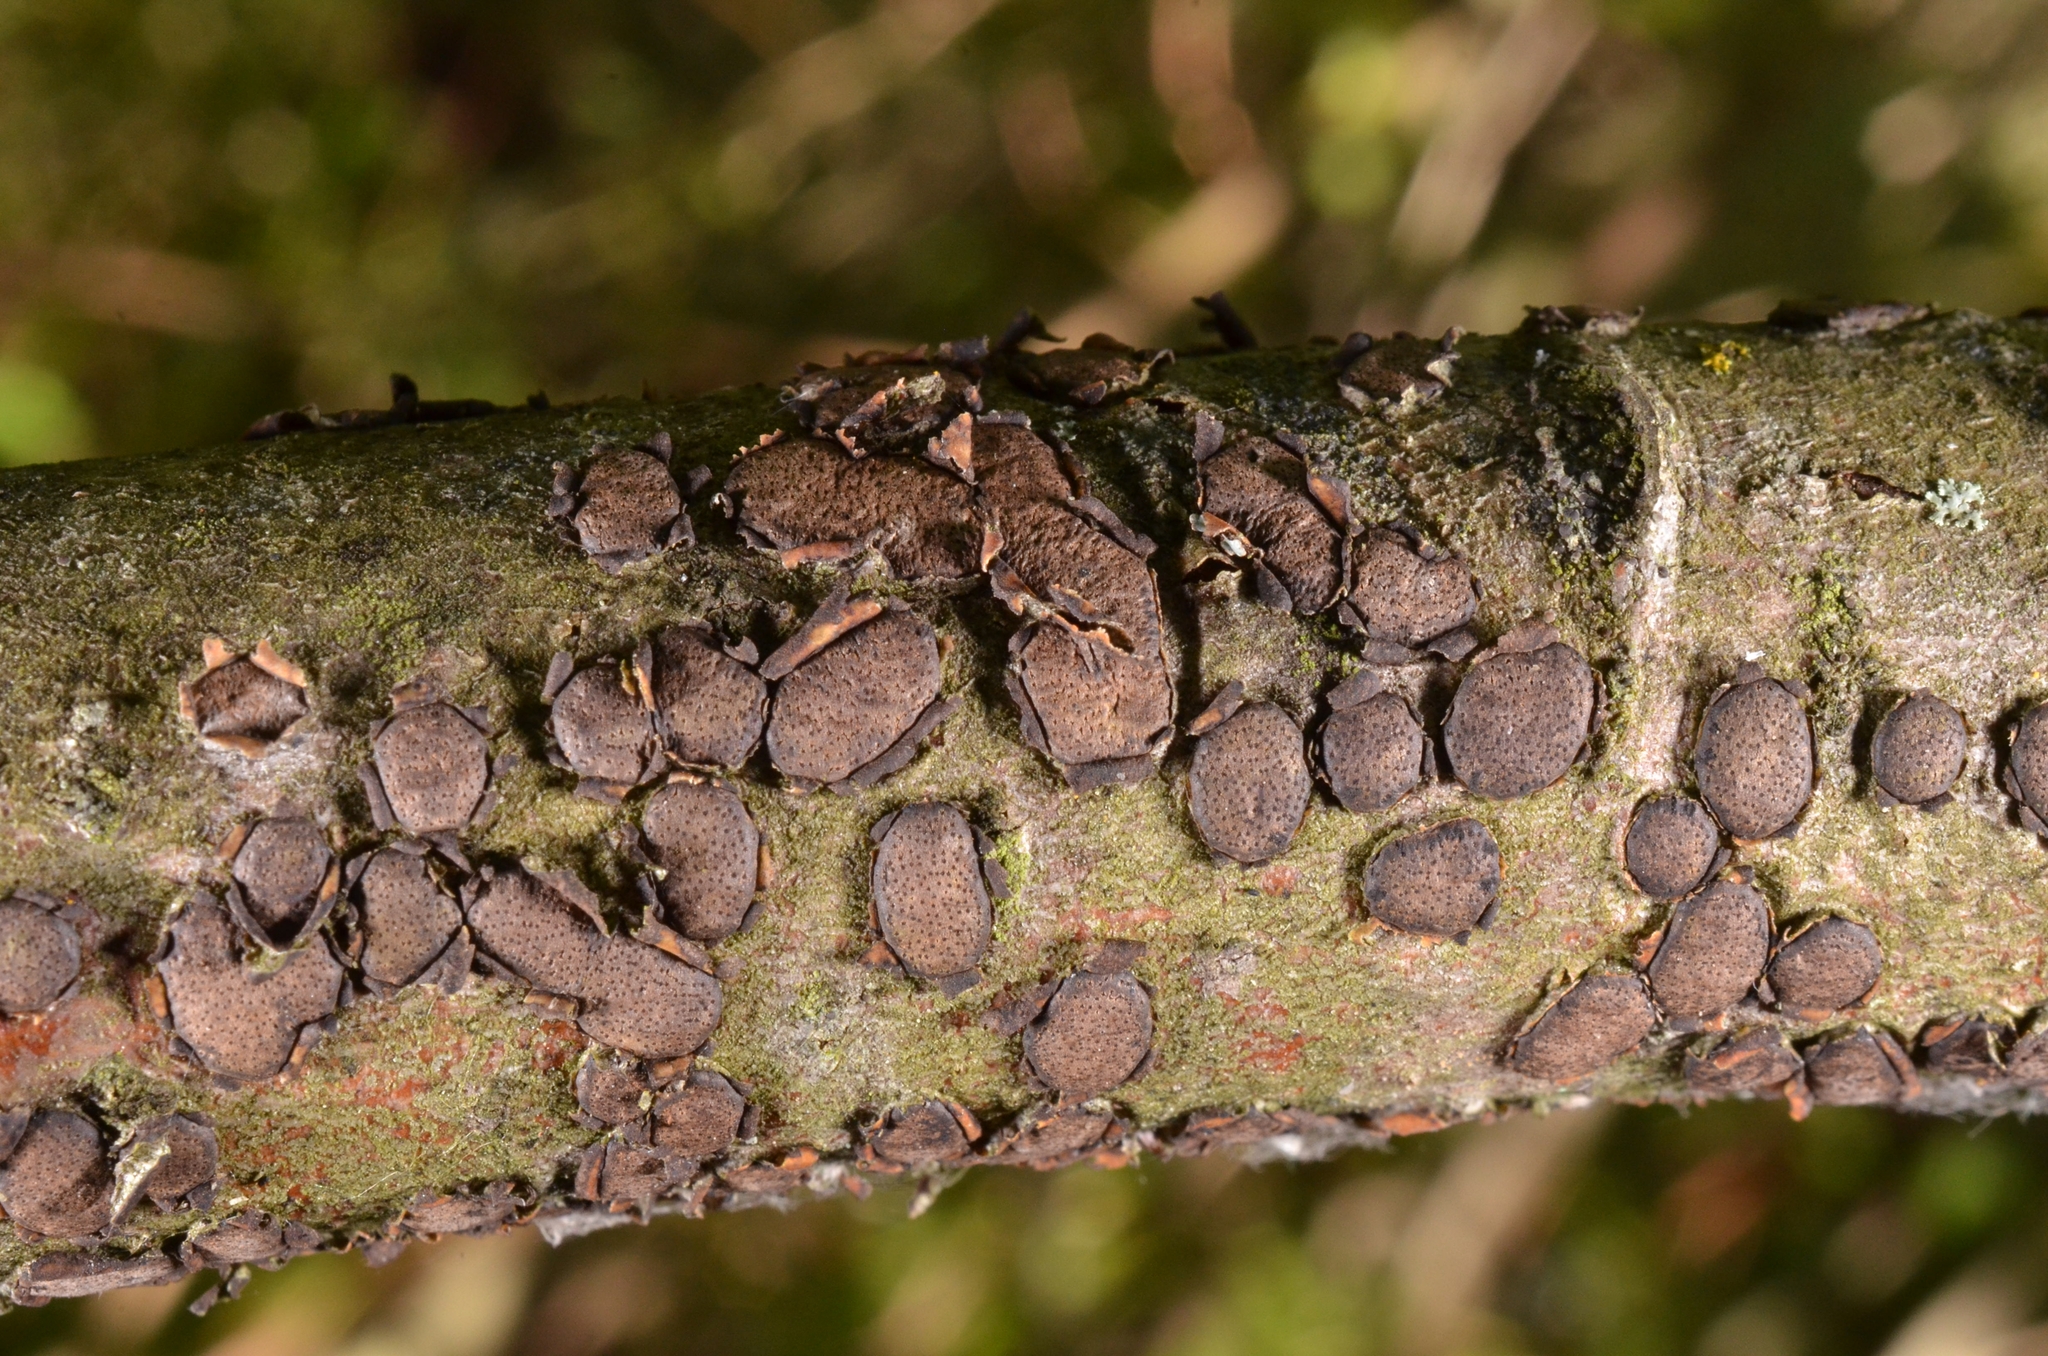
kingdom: Fungi
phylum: Ascomycota
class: Sordariomycetes
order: Xylariales
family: Diatrypaceae
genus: Diatrype
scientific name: Diatrype bullata
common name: Willow barkspot
